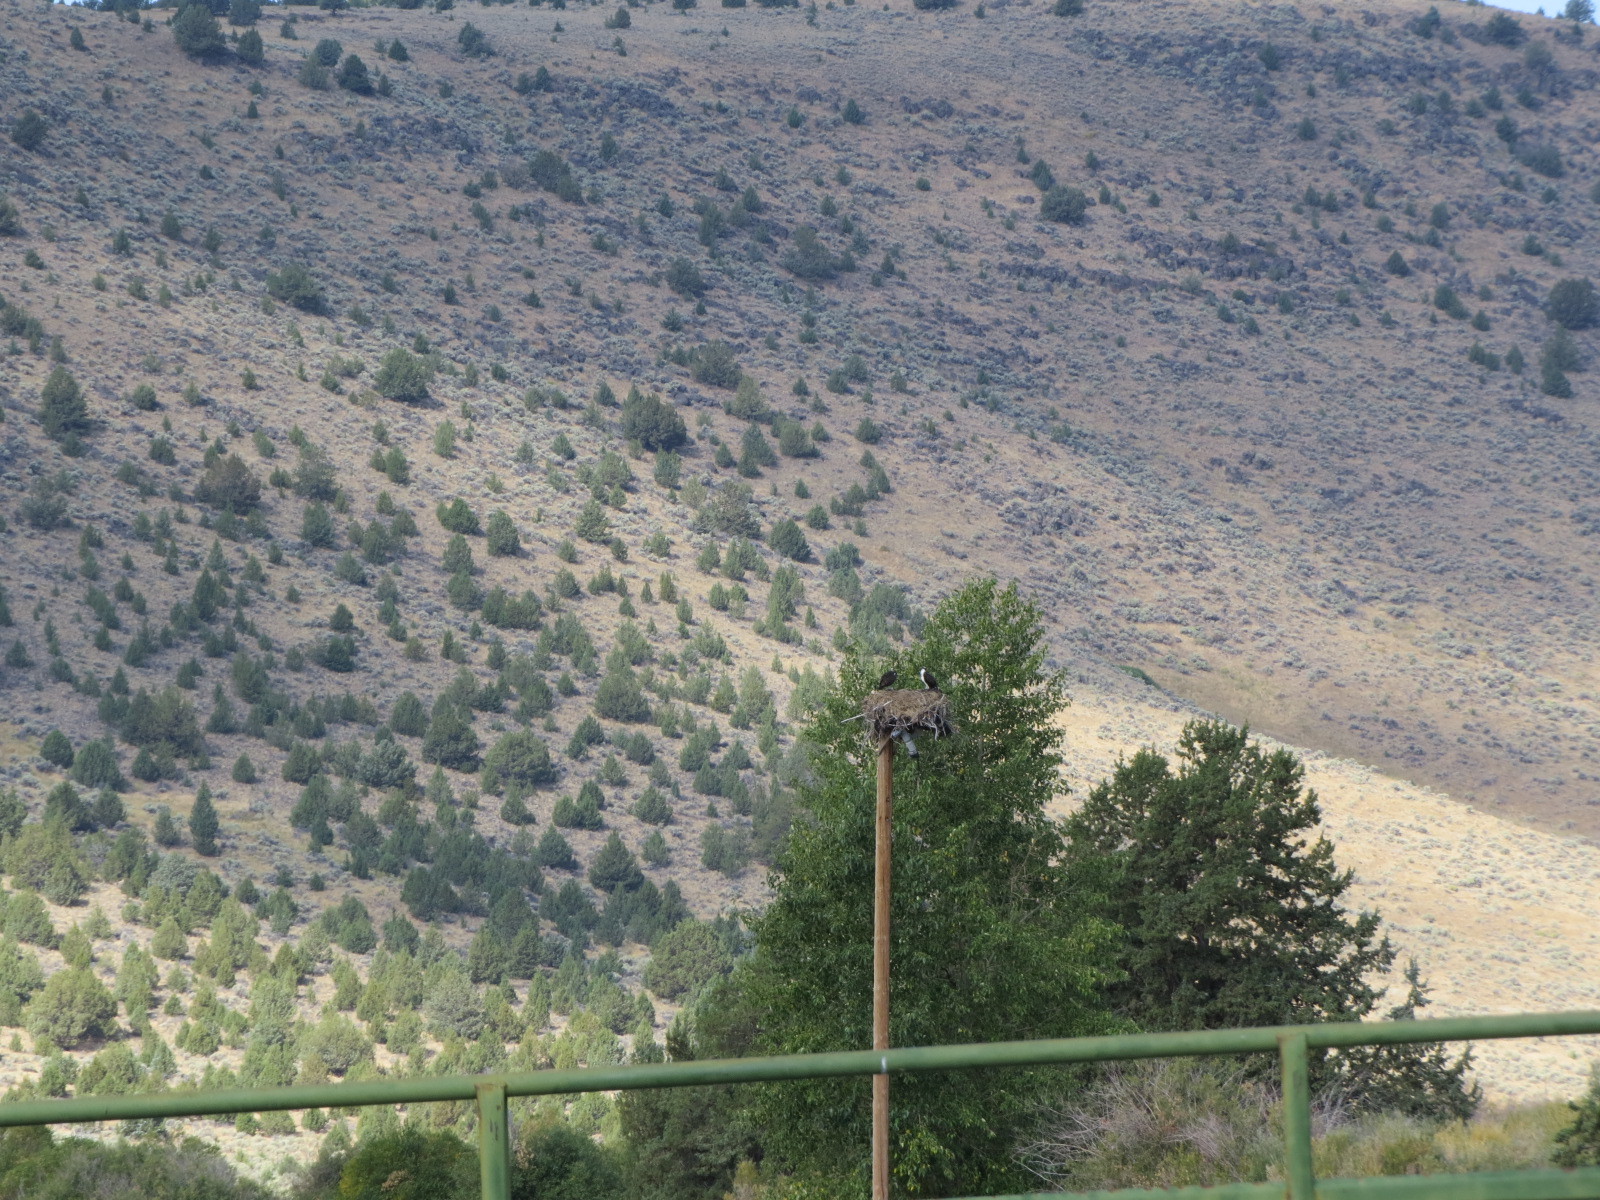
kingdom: Animalia
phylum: Chordata
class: Aves
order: Accipitriformes
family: Pandionidae
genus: Pandion
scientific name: Pandion haliaetus
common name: Osprey
